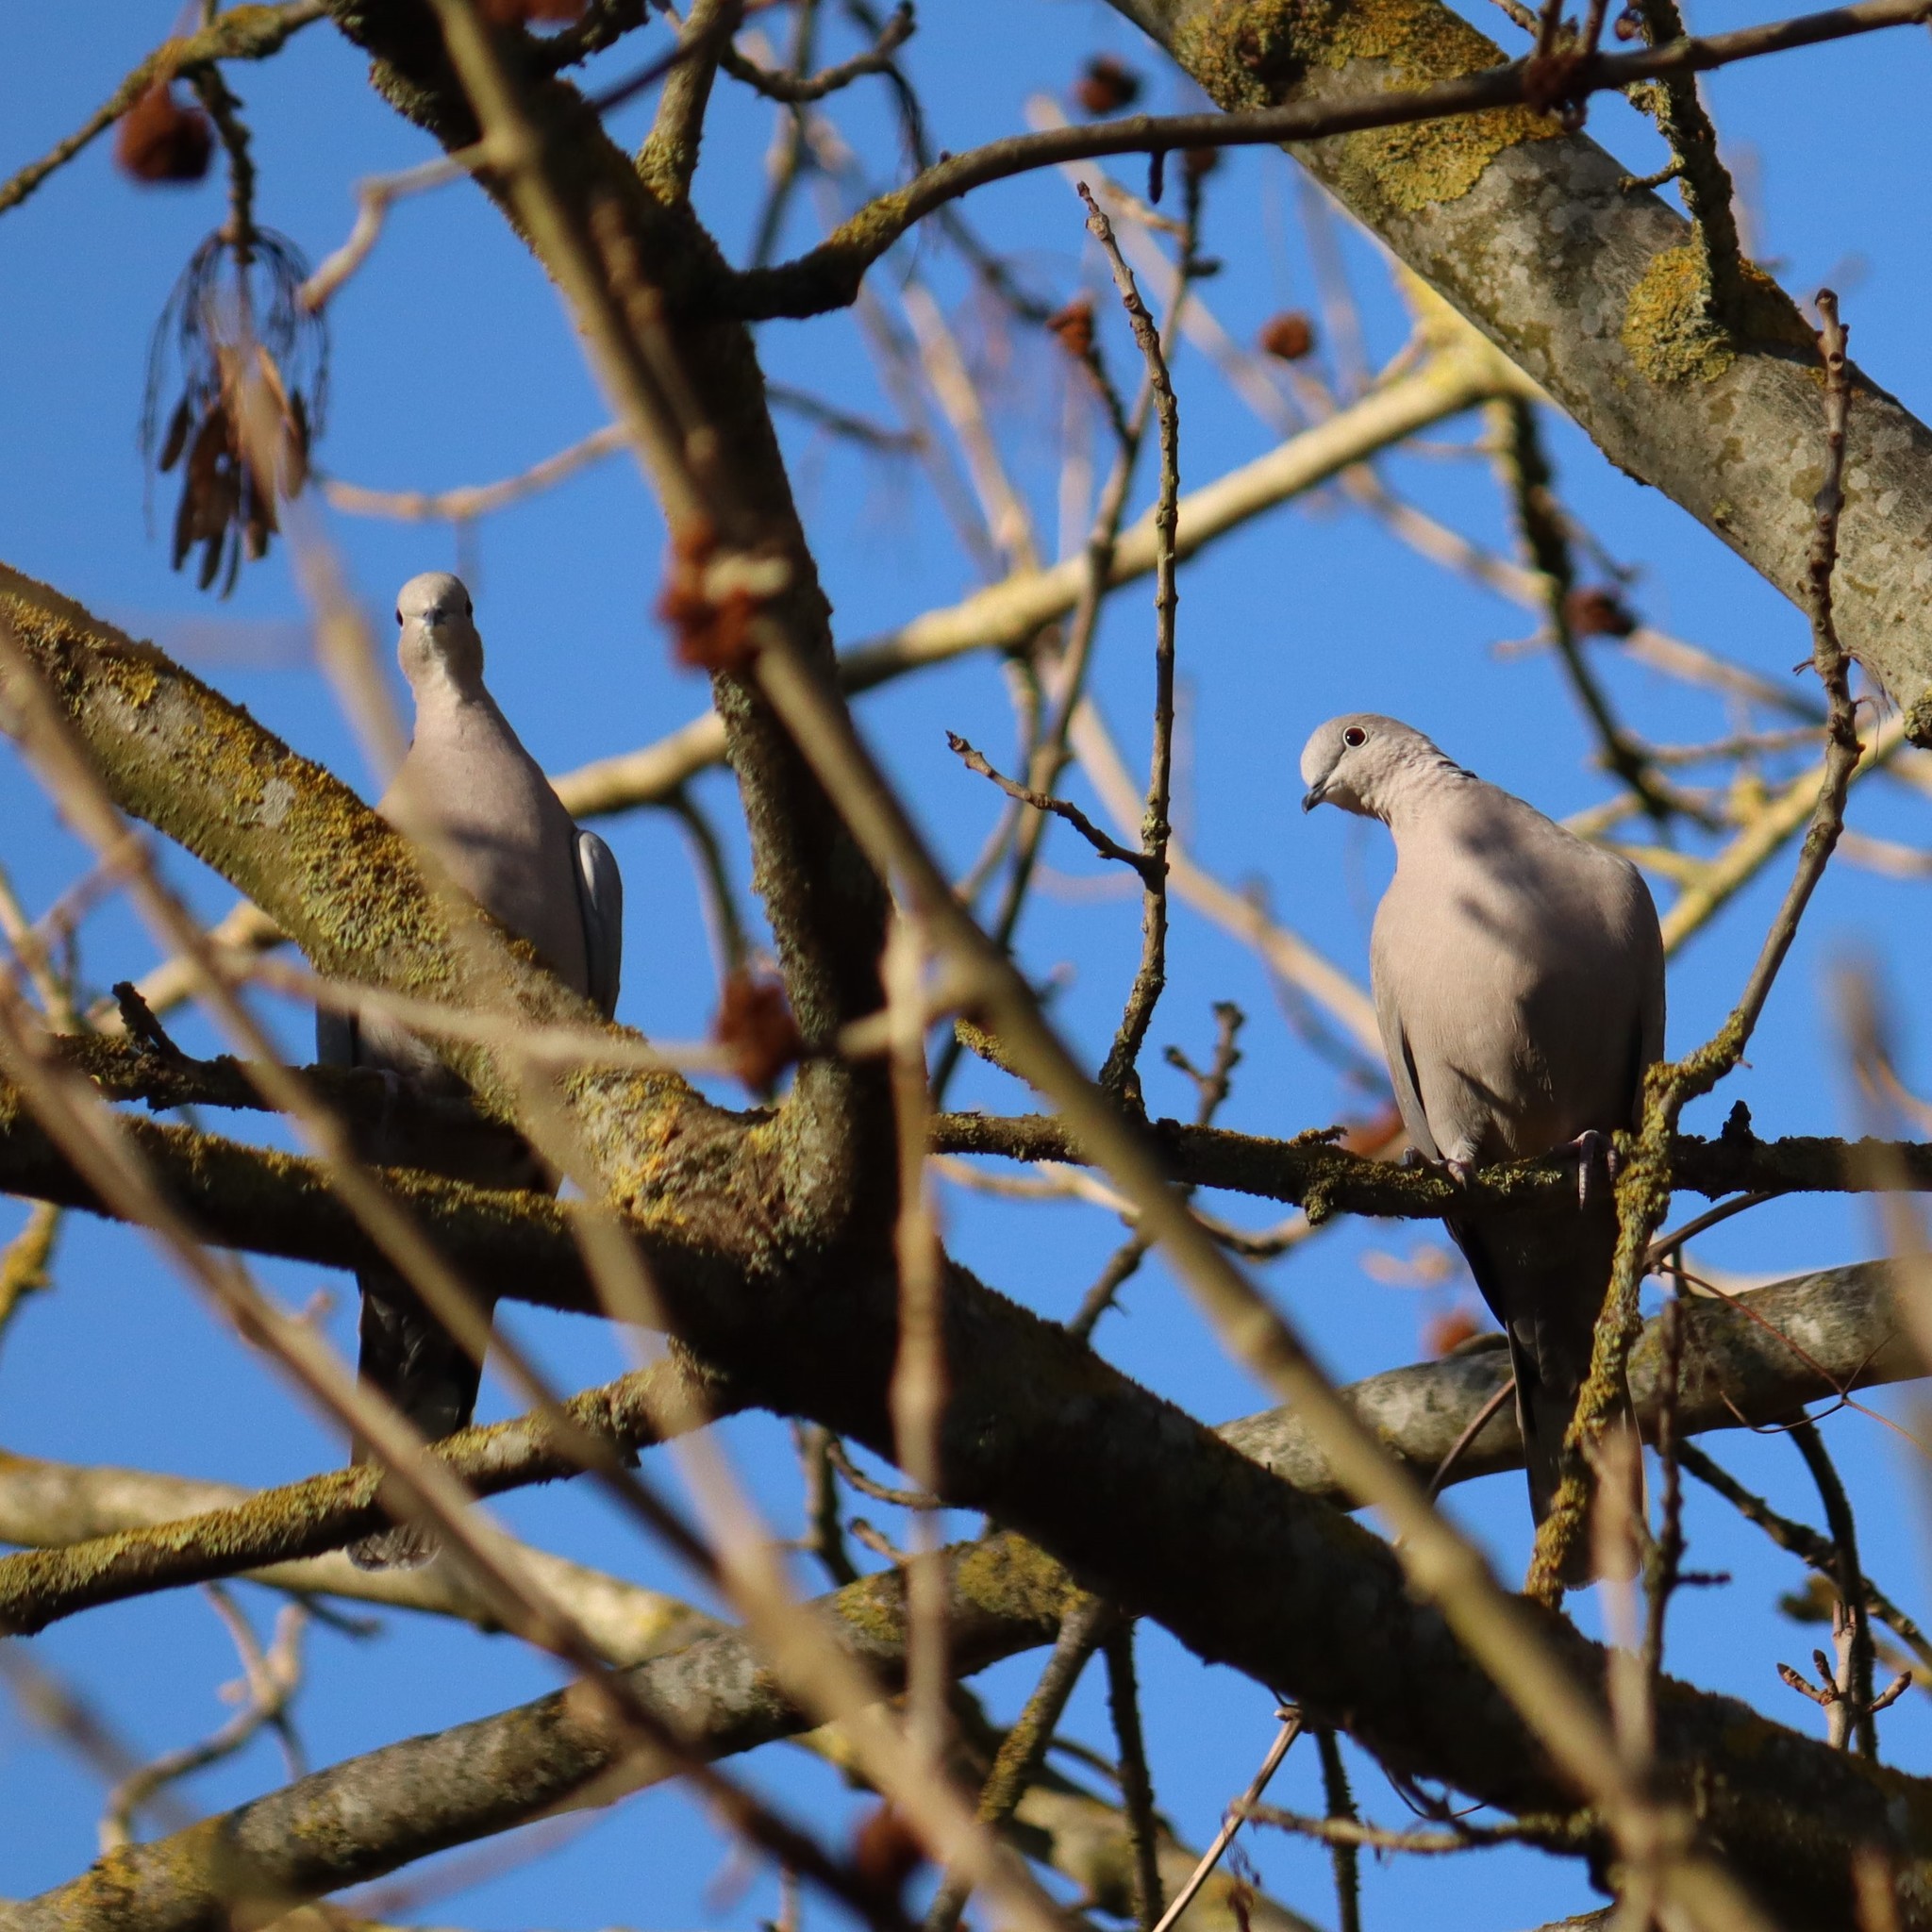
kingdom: Animalia
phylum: Chordata
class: Aves
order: Columbiformes
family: Columbidae
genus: Streptopelia
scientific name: Streptopelia decaocto
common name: Eurasian collared dove
